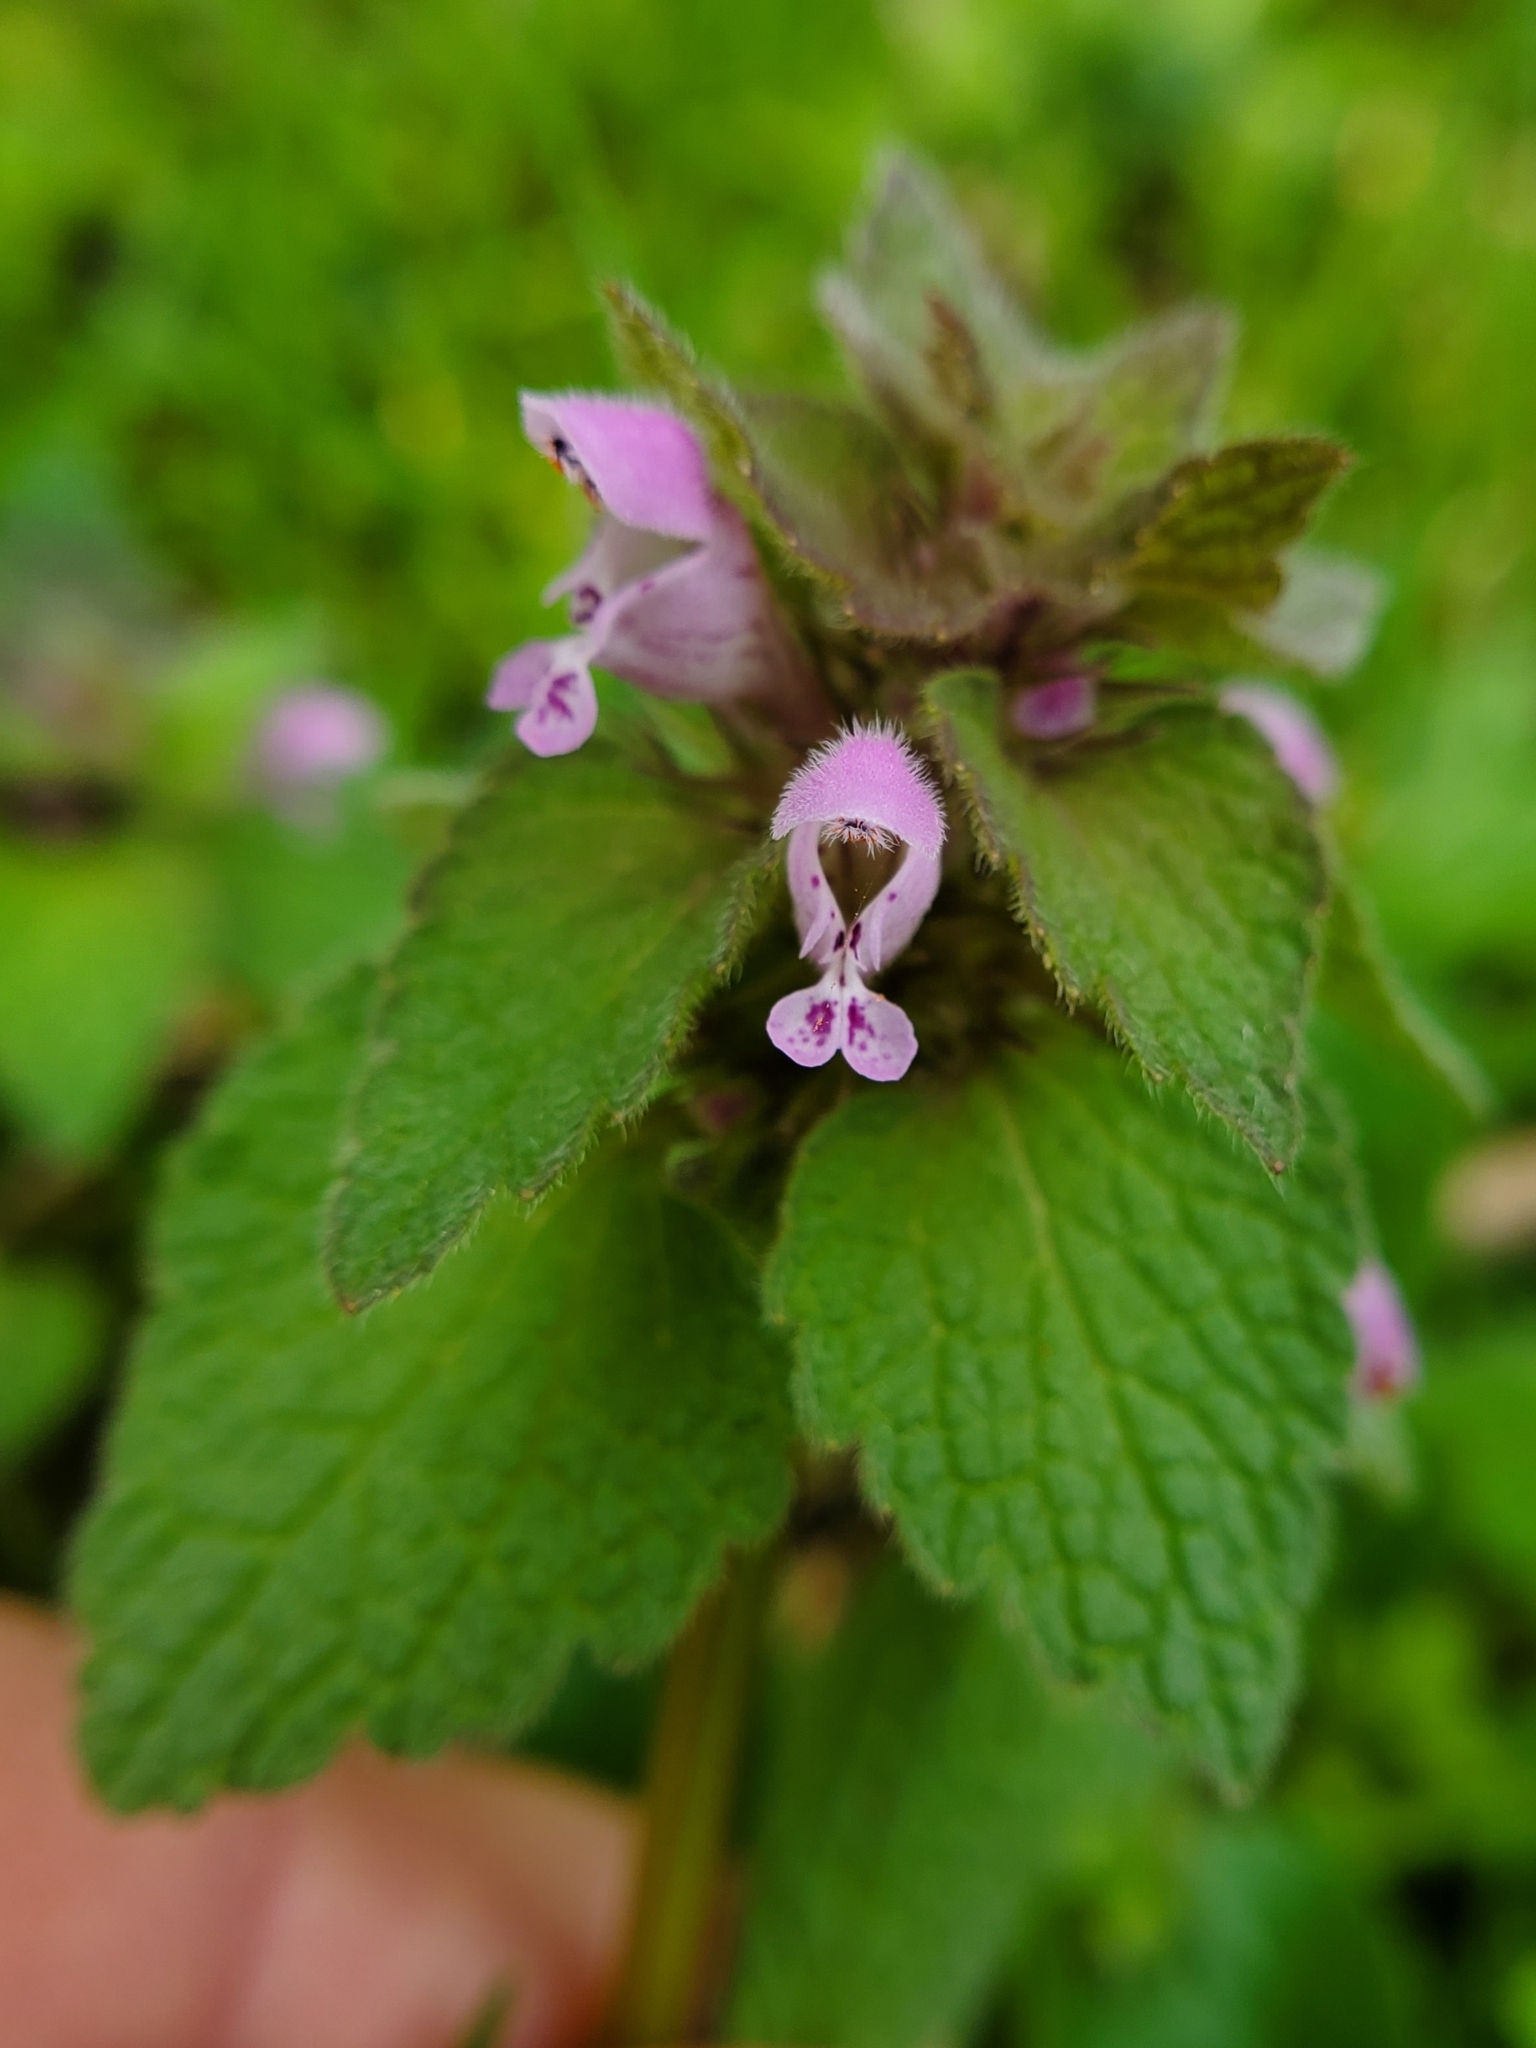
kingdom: Plantae
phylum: Tracheophyta
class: Magnoliopsida
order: Lamiales
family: Lamiaceae
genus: Lamium
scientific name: Lamium purpureum
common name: Red dead-nettle
